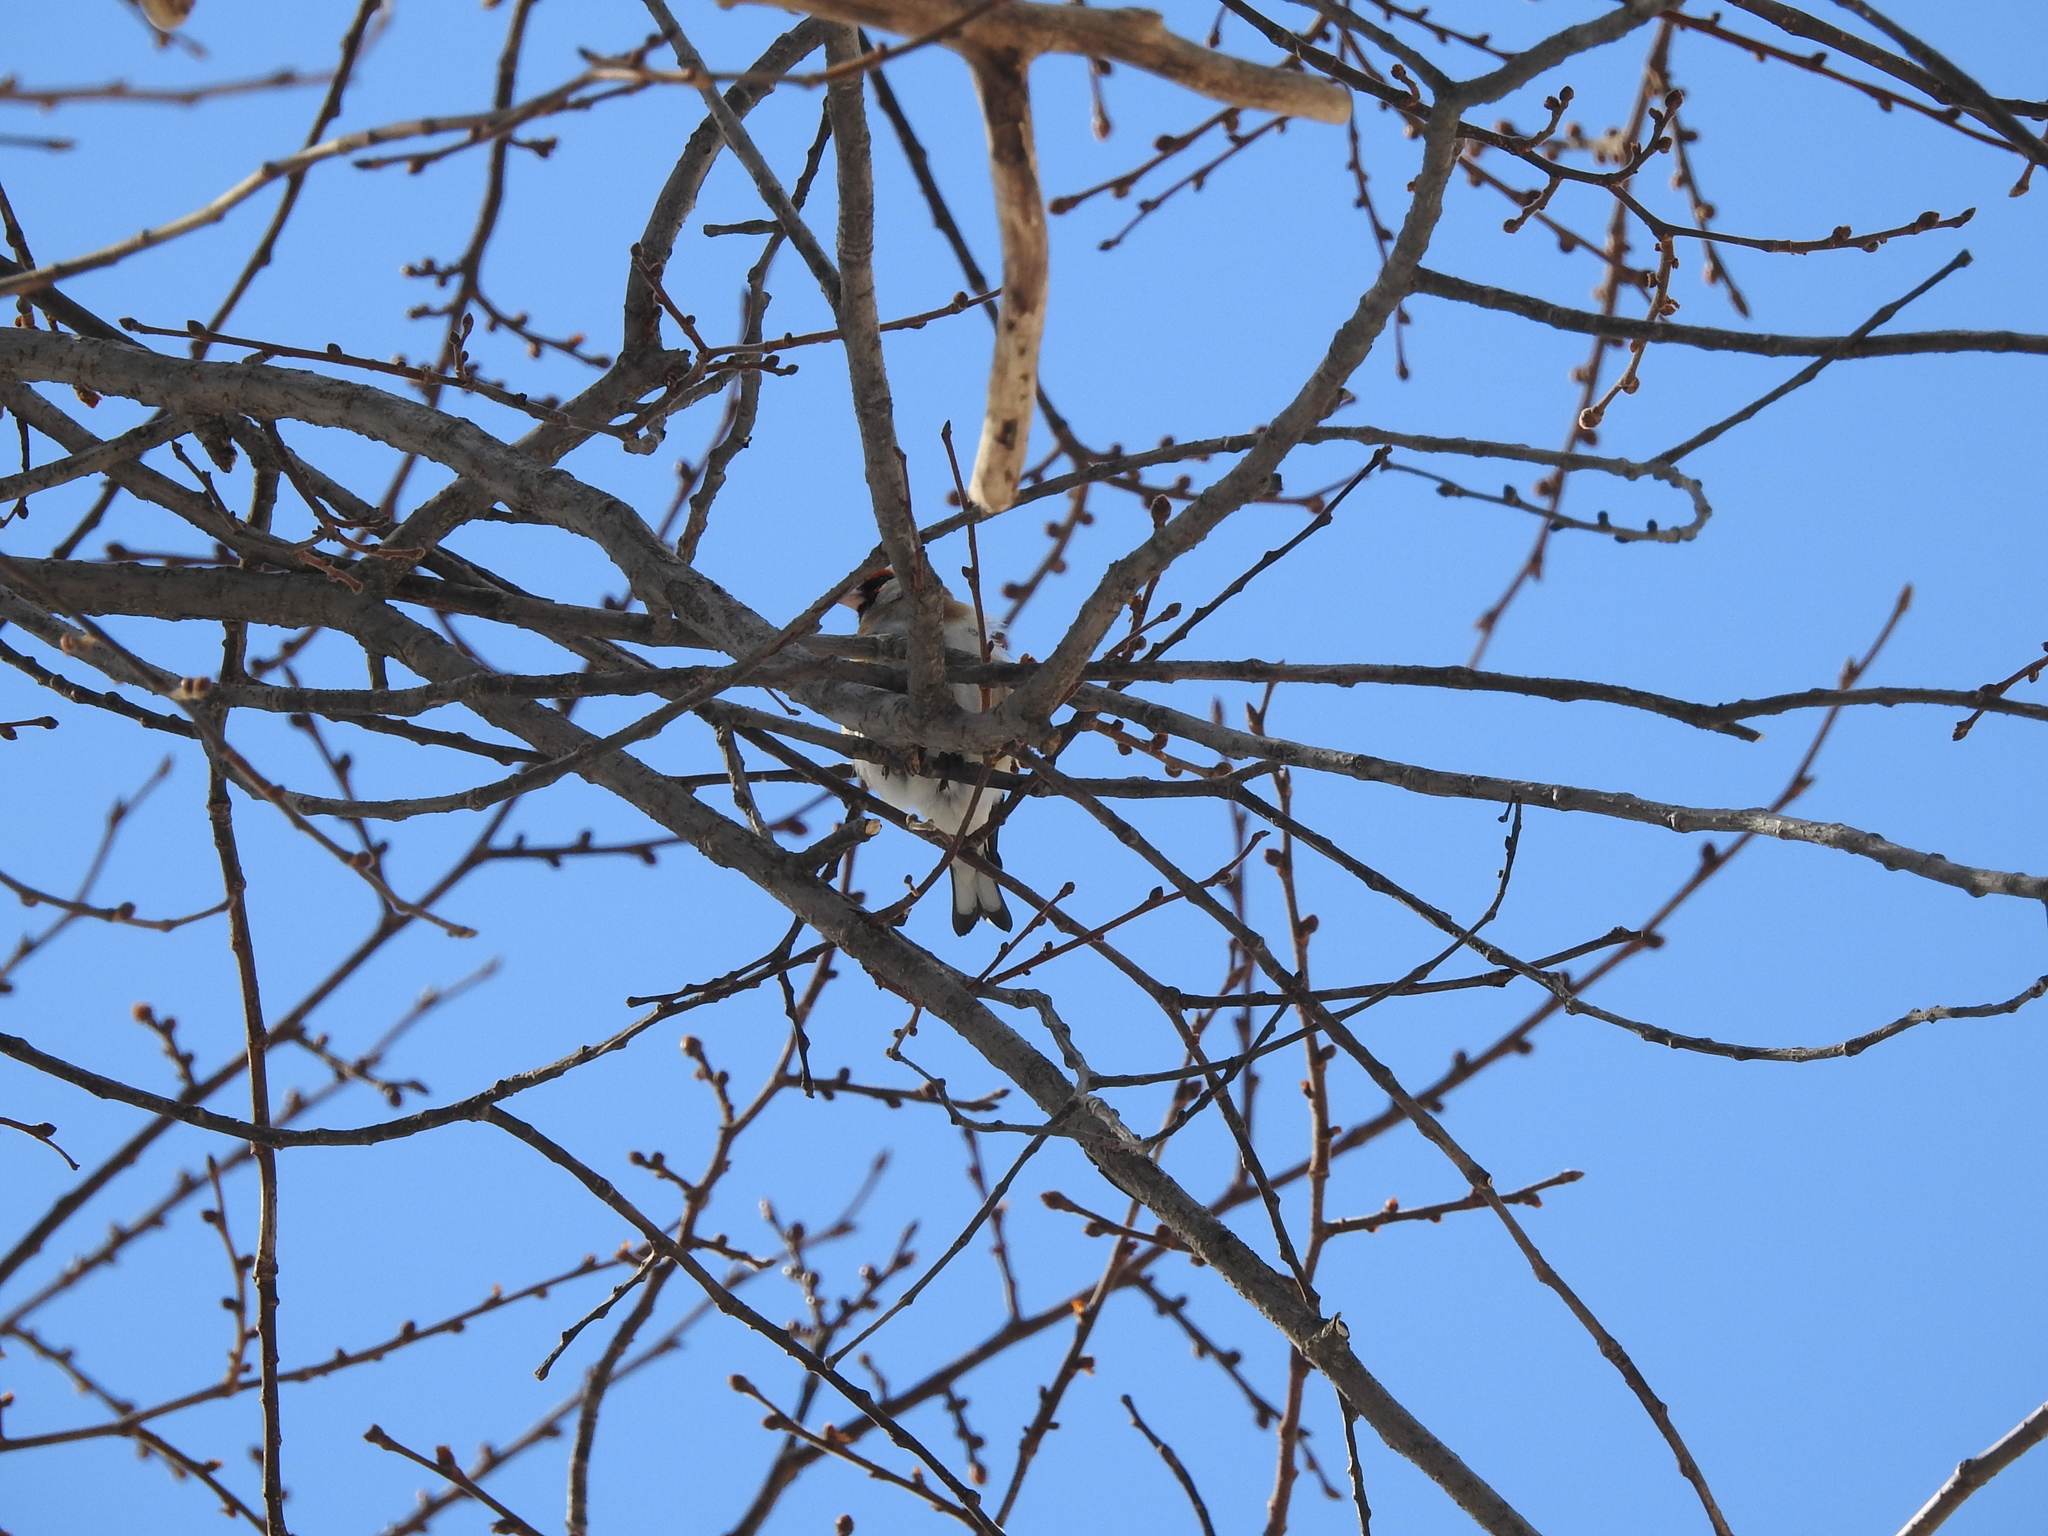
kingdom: Animalia
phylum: Chordata
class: Aves
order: Passeriformes
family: Fringillidae
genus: Carduelis
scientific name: Carduelis carduelis
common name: European goldfinch
